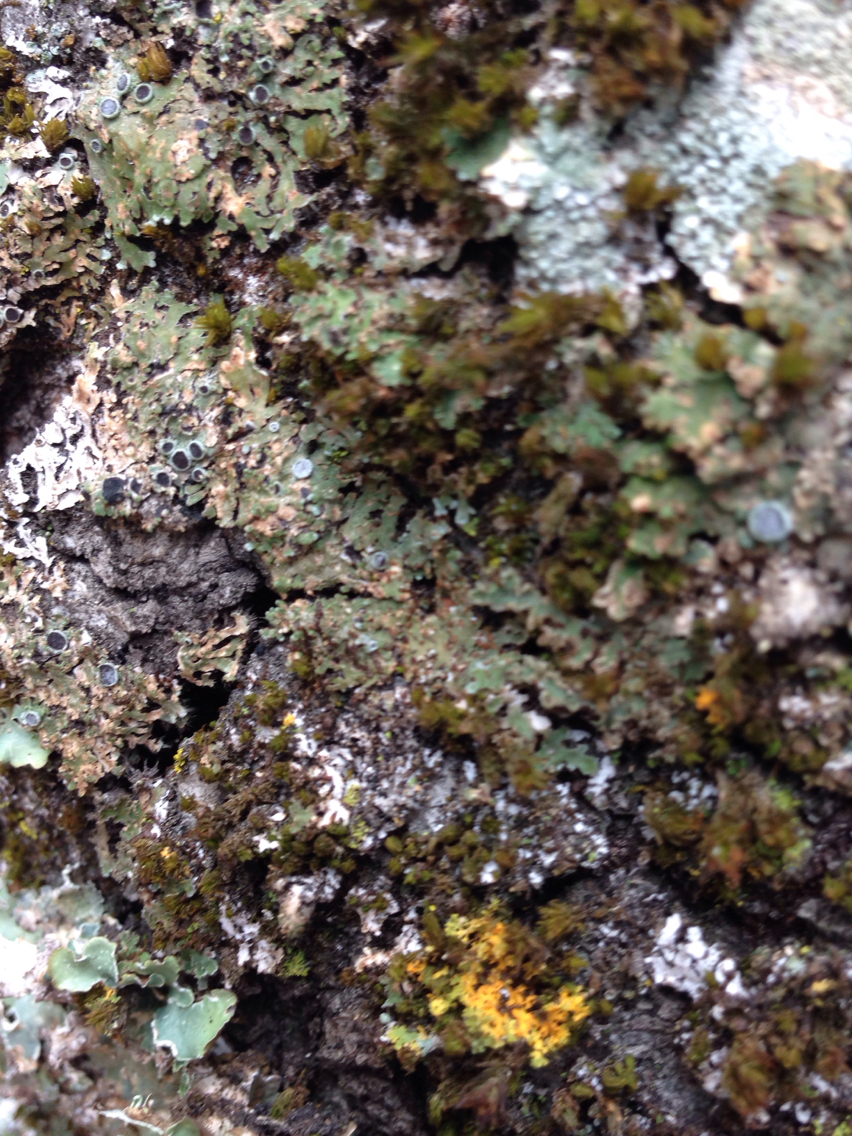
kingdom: Fungi
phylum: Ascomycota
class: Lecanoromycetes
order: Caliciales
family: Physciaceae
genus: Physconia
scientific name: Physconia americana
